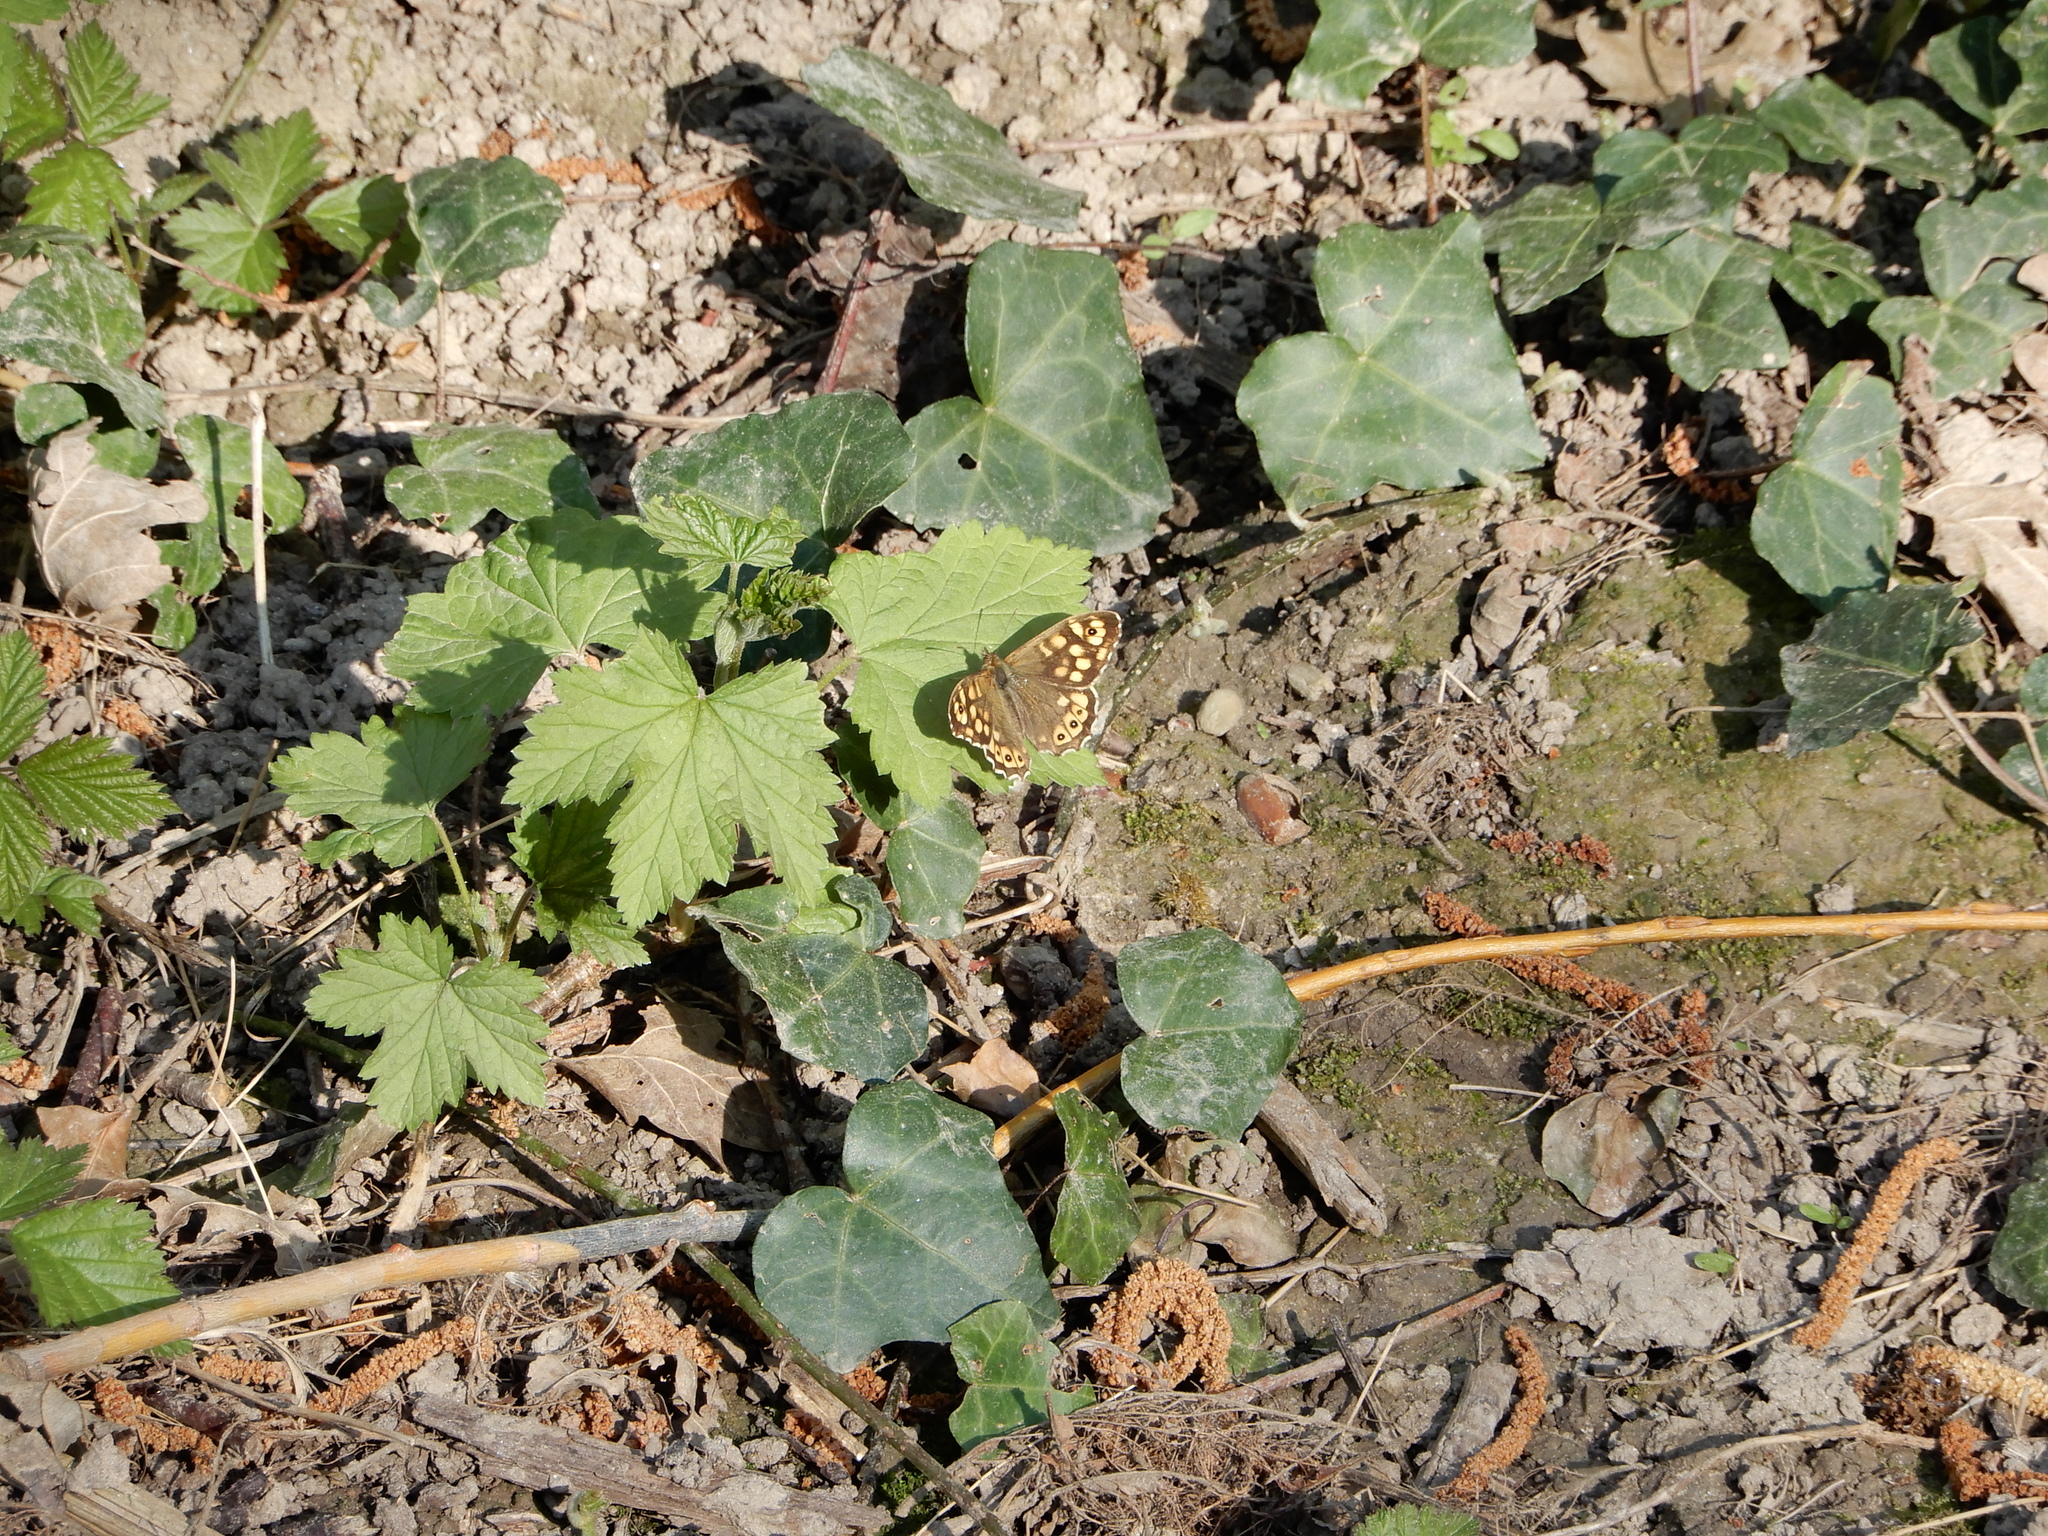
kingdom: Animalia
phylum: Arthropoda
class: Insecta
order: Lepidoptera
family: Nymphalidae
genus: Pararge
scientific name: Pararge aegeria
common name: Speckled wood
